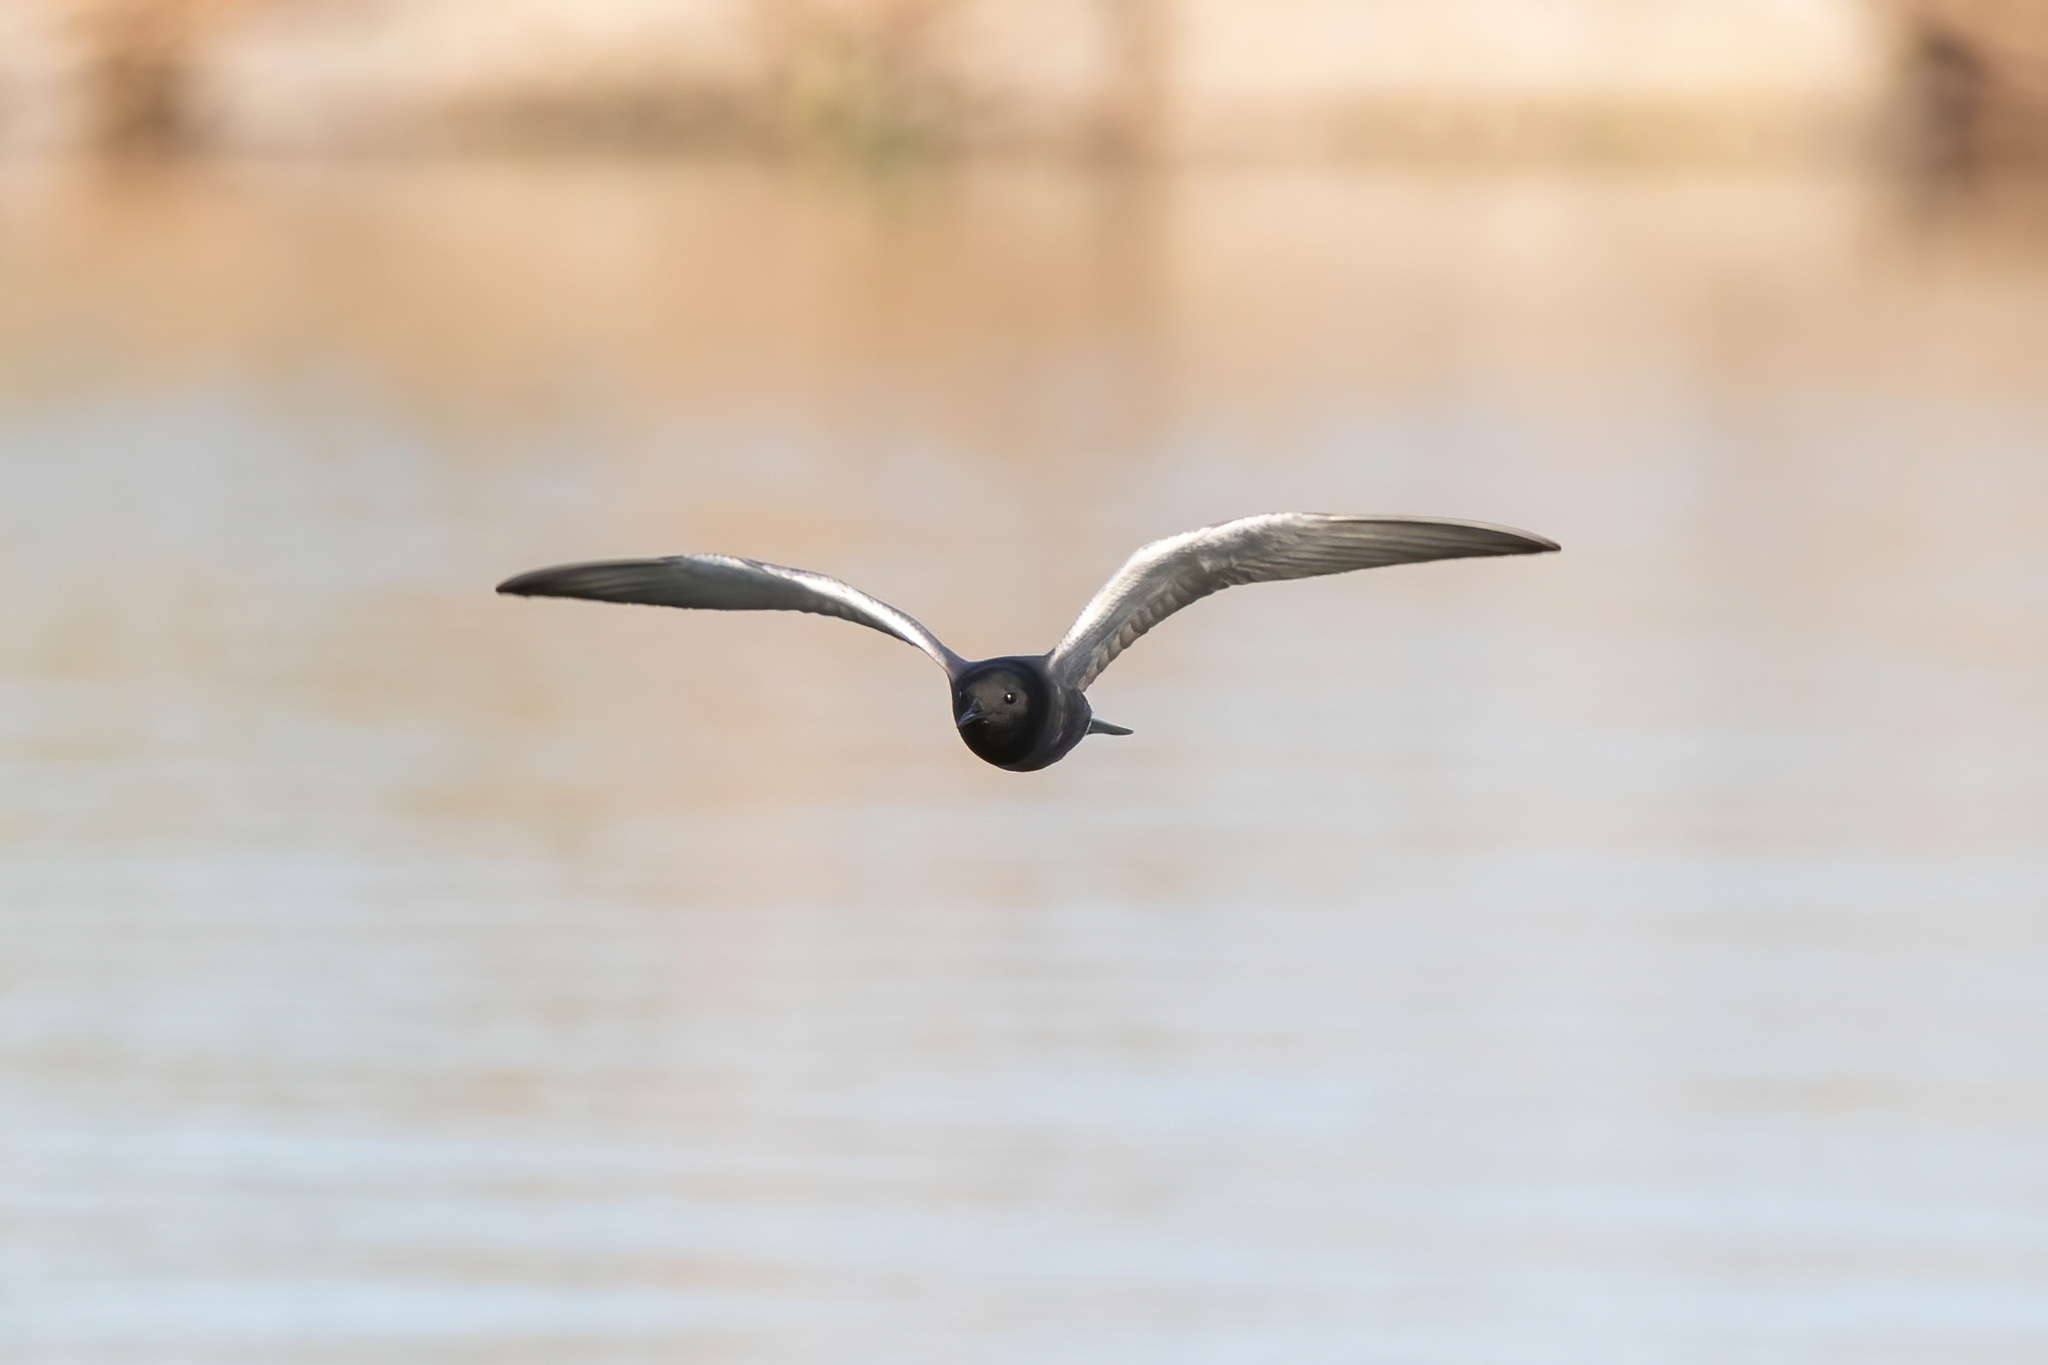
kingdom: Animalia
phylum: Chordata
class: Aves
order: Charadriiformes
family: Laridae
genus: Chlidonias
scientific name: Chlidonias niger
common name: Black tern
